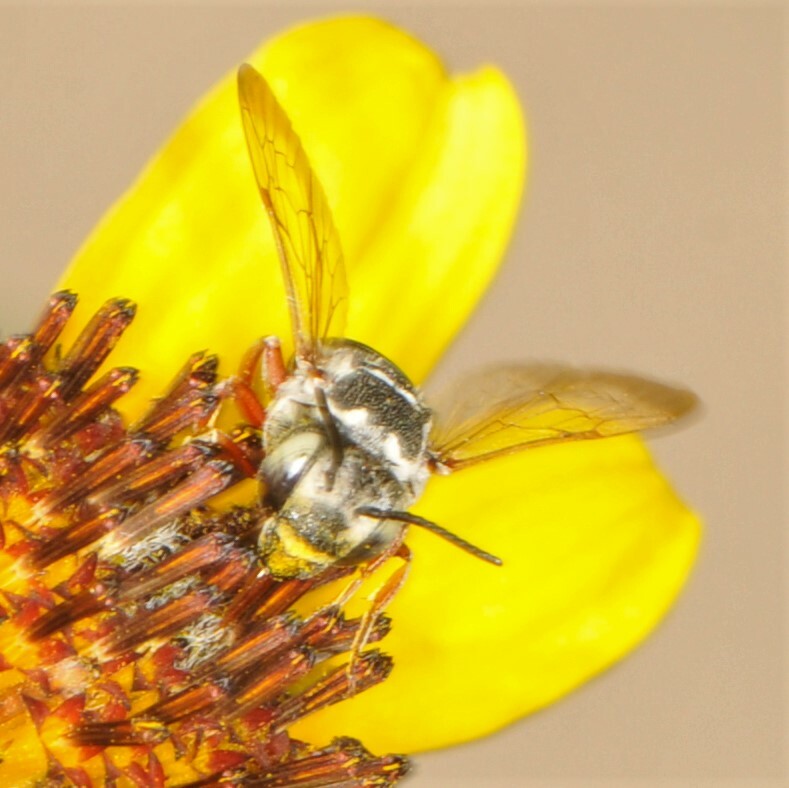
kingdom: Animalia
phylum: Arthropoda
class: Insecta
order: Hymenoptera
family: Megachilidae
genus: Coelioxys
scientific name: Coelioxys
